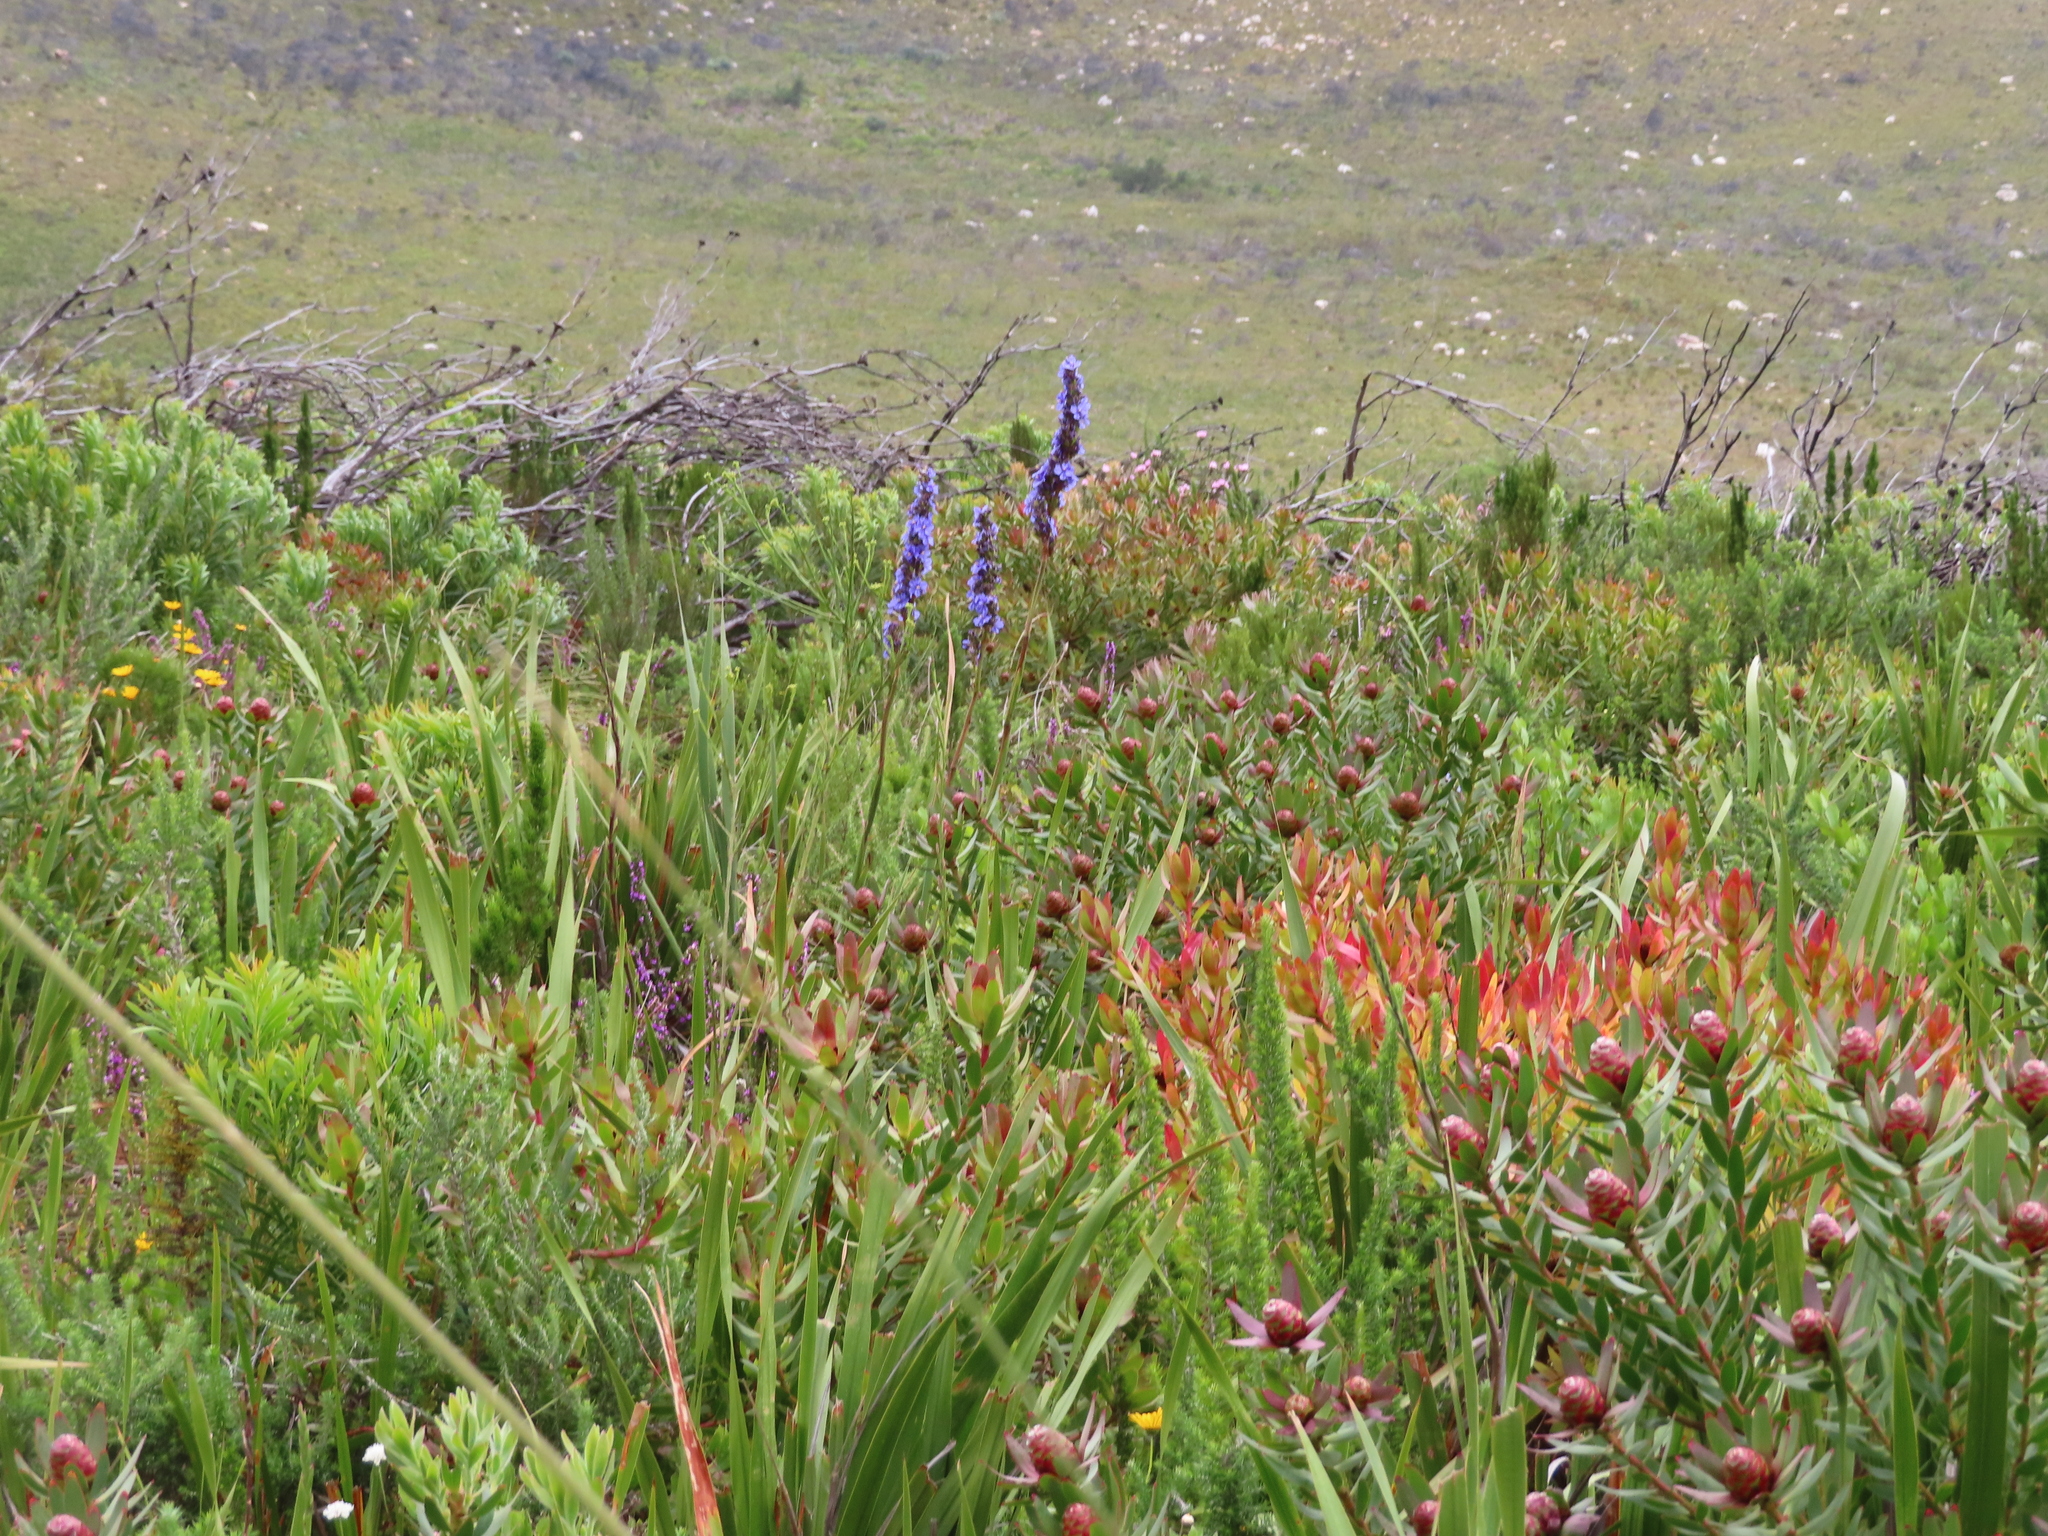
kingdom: Plantae
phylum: Tracheophyta
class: Magnoliopsida
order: Proteales
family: Proteaceae
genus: Leucadendron
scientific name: Leucadendron sessile
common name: Western sunbush
